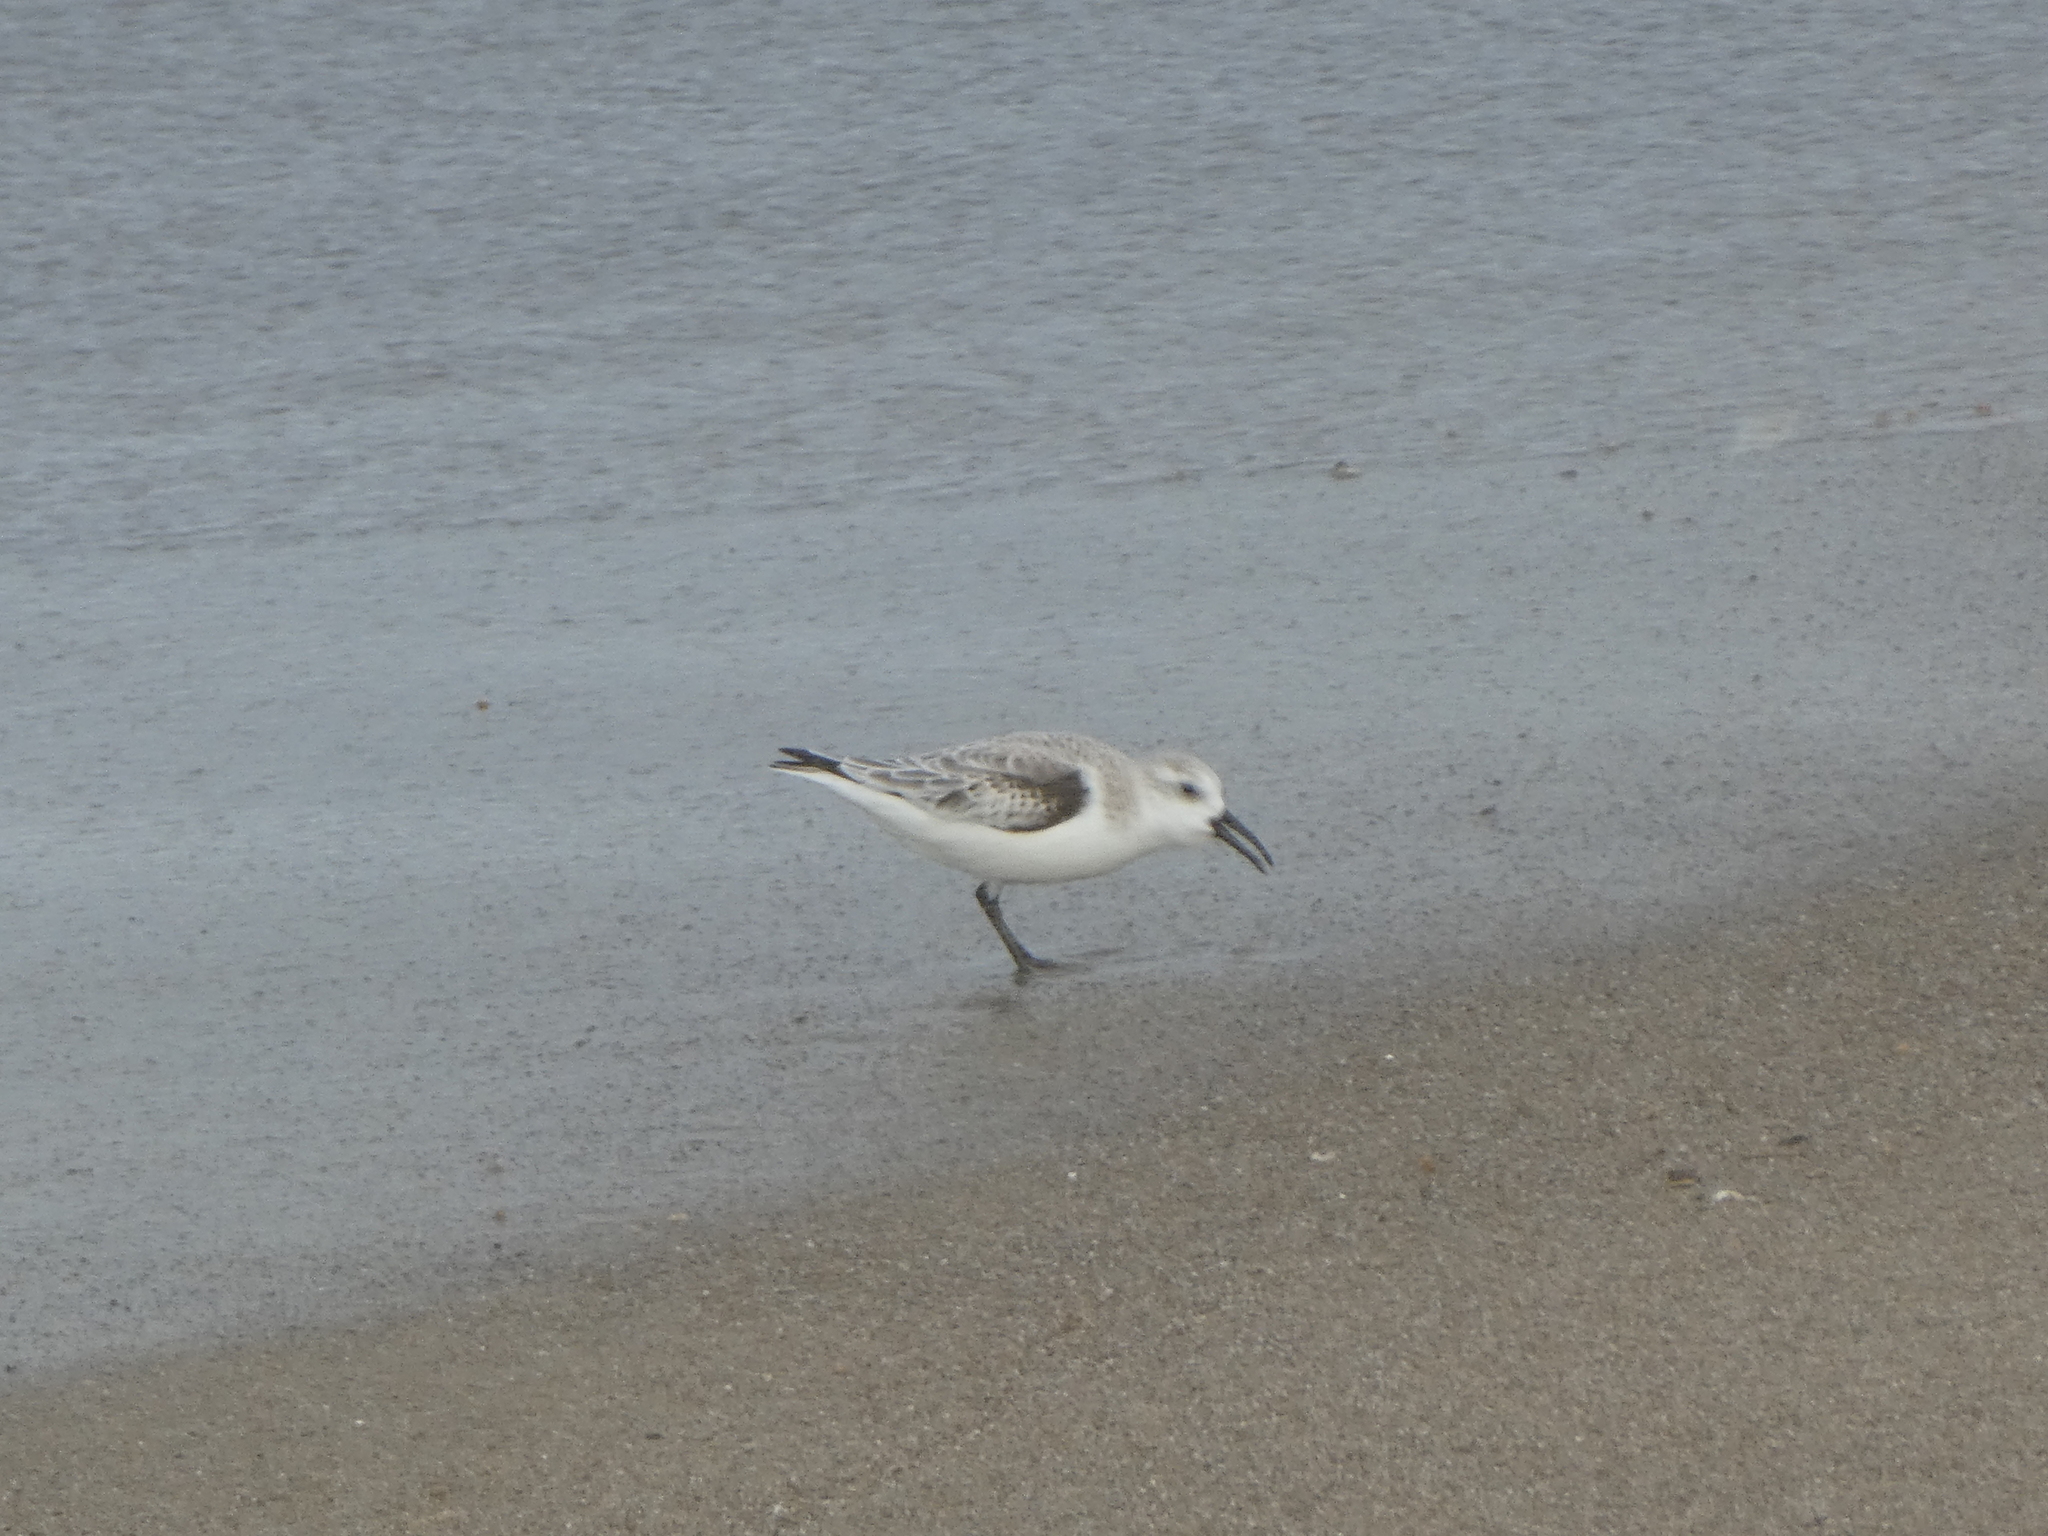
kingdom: Animalia
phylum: Chordata
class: Aves
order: Charadriiformes
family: Scolopacidae
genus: Calidris
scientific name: Calidris alba
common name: Sanderling
